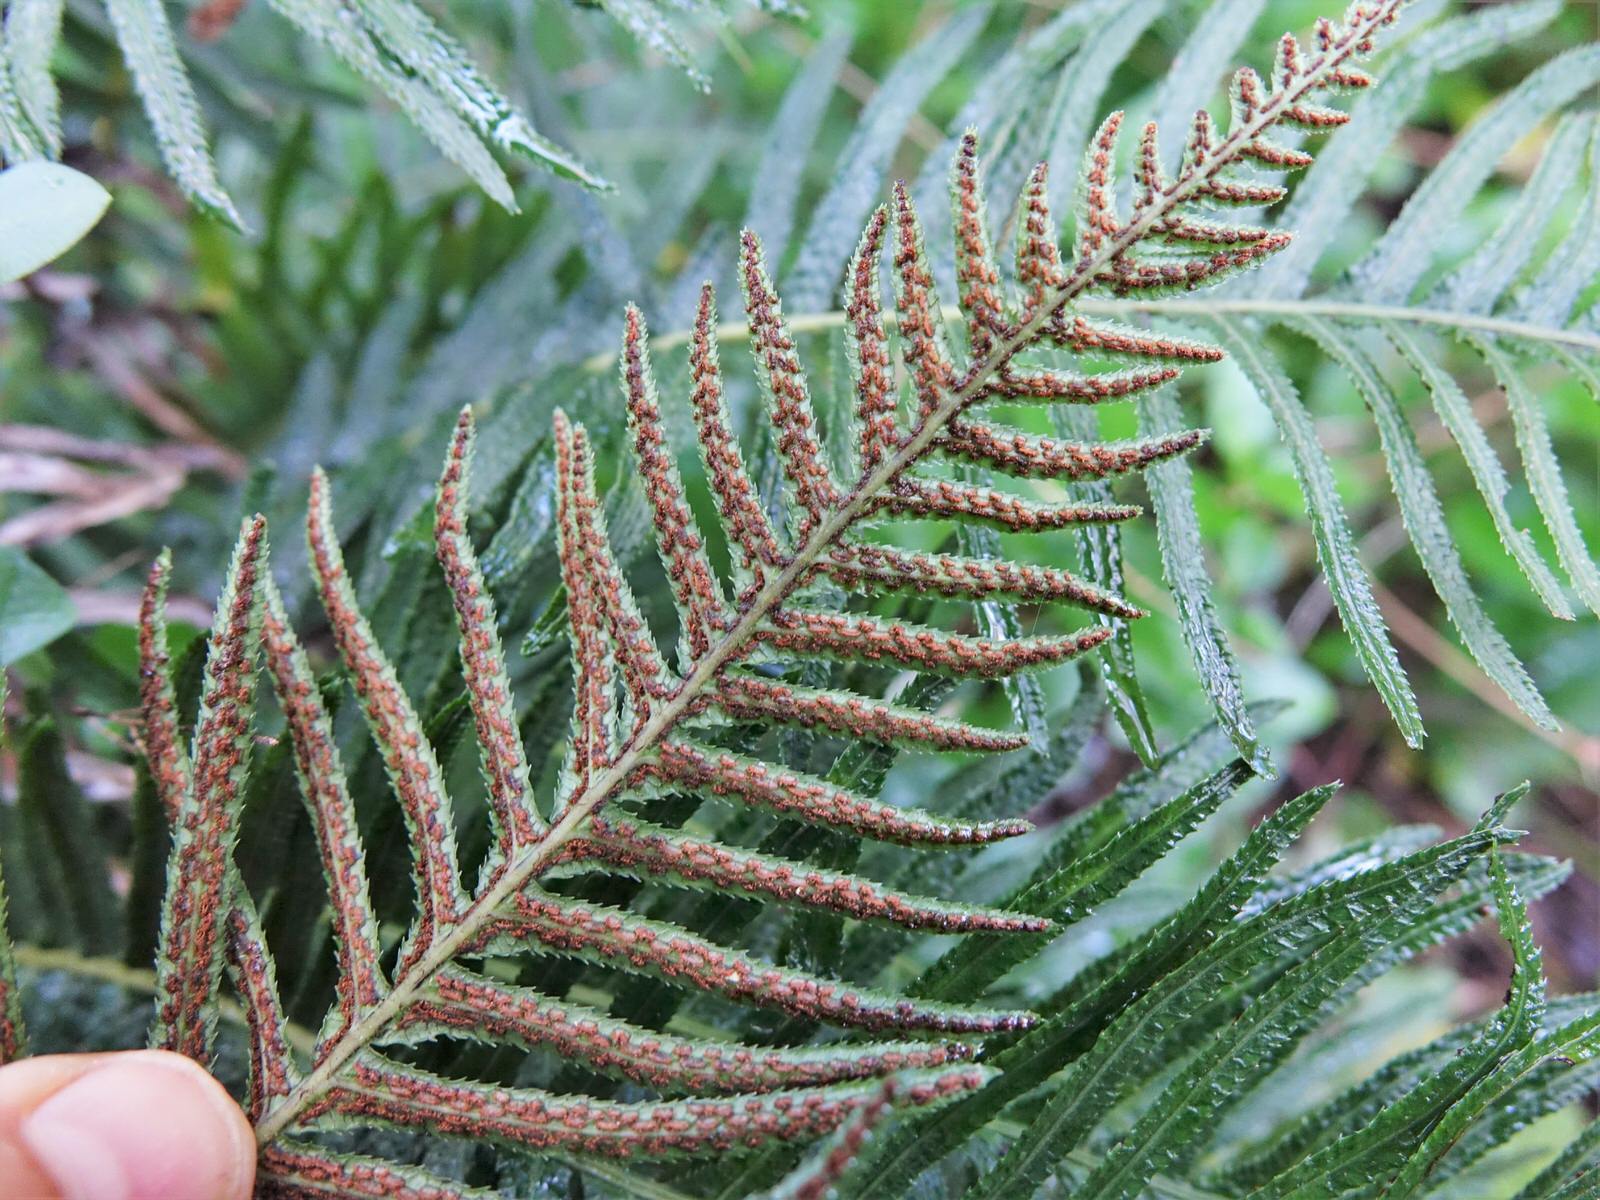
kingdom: Plantae
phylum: Tracheophyta
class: Polypodiopsida
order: Polypodiales
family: Blechnaceae
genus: Doodia
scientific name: Doodia australis
